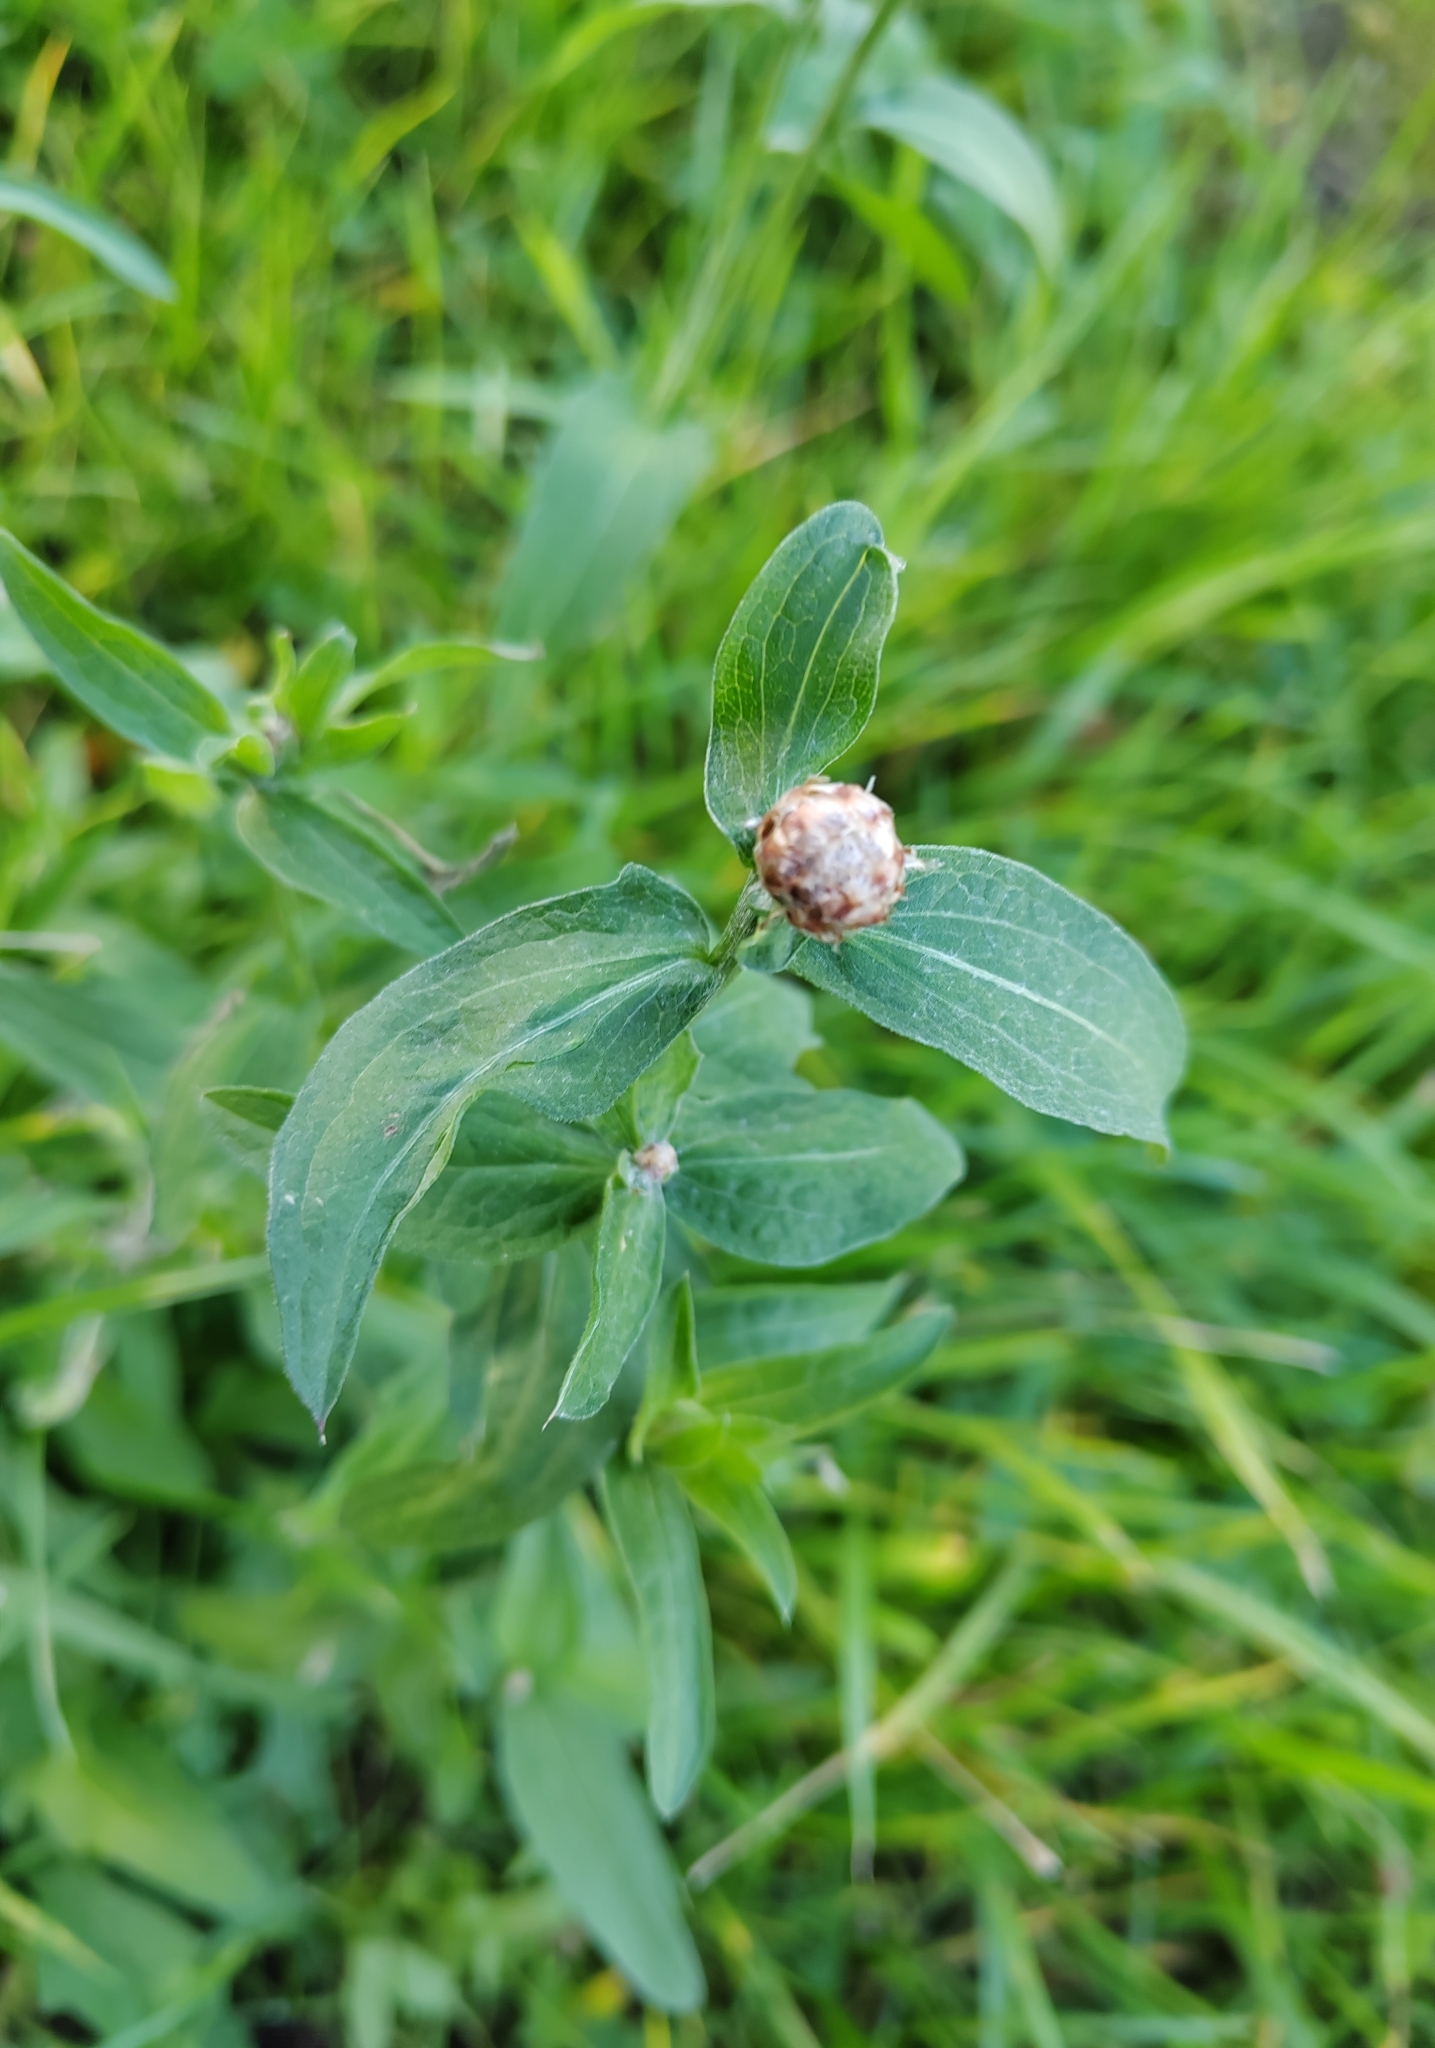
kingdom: Plantae
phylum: Tracheophyta
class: Magnoliopsida
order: Asterales
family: Asteraceae
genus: Centaurea
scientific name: Centaurea jacea
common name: Brown knapweed
